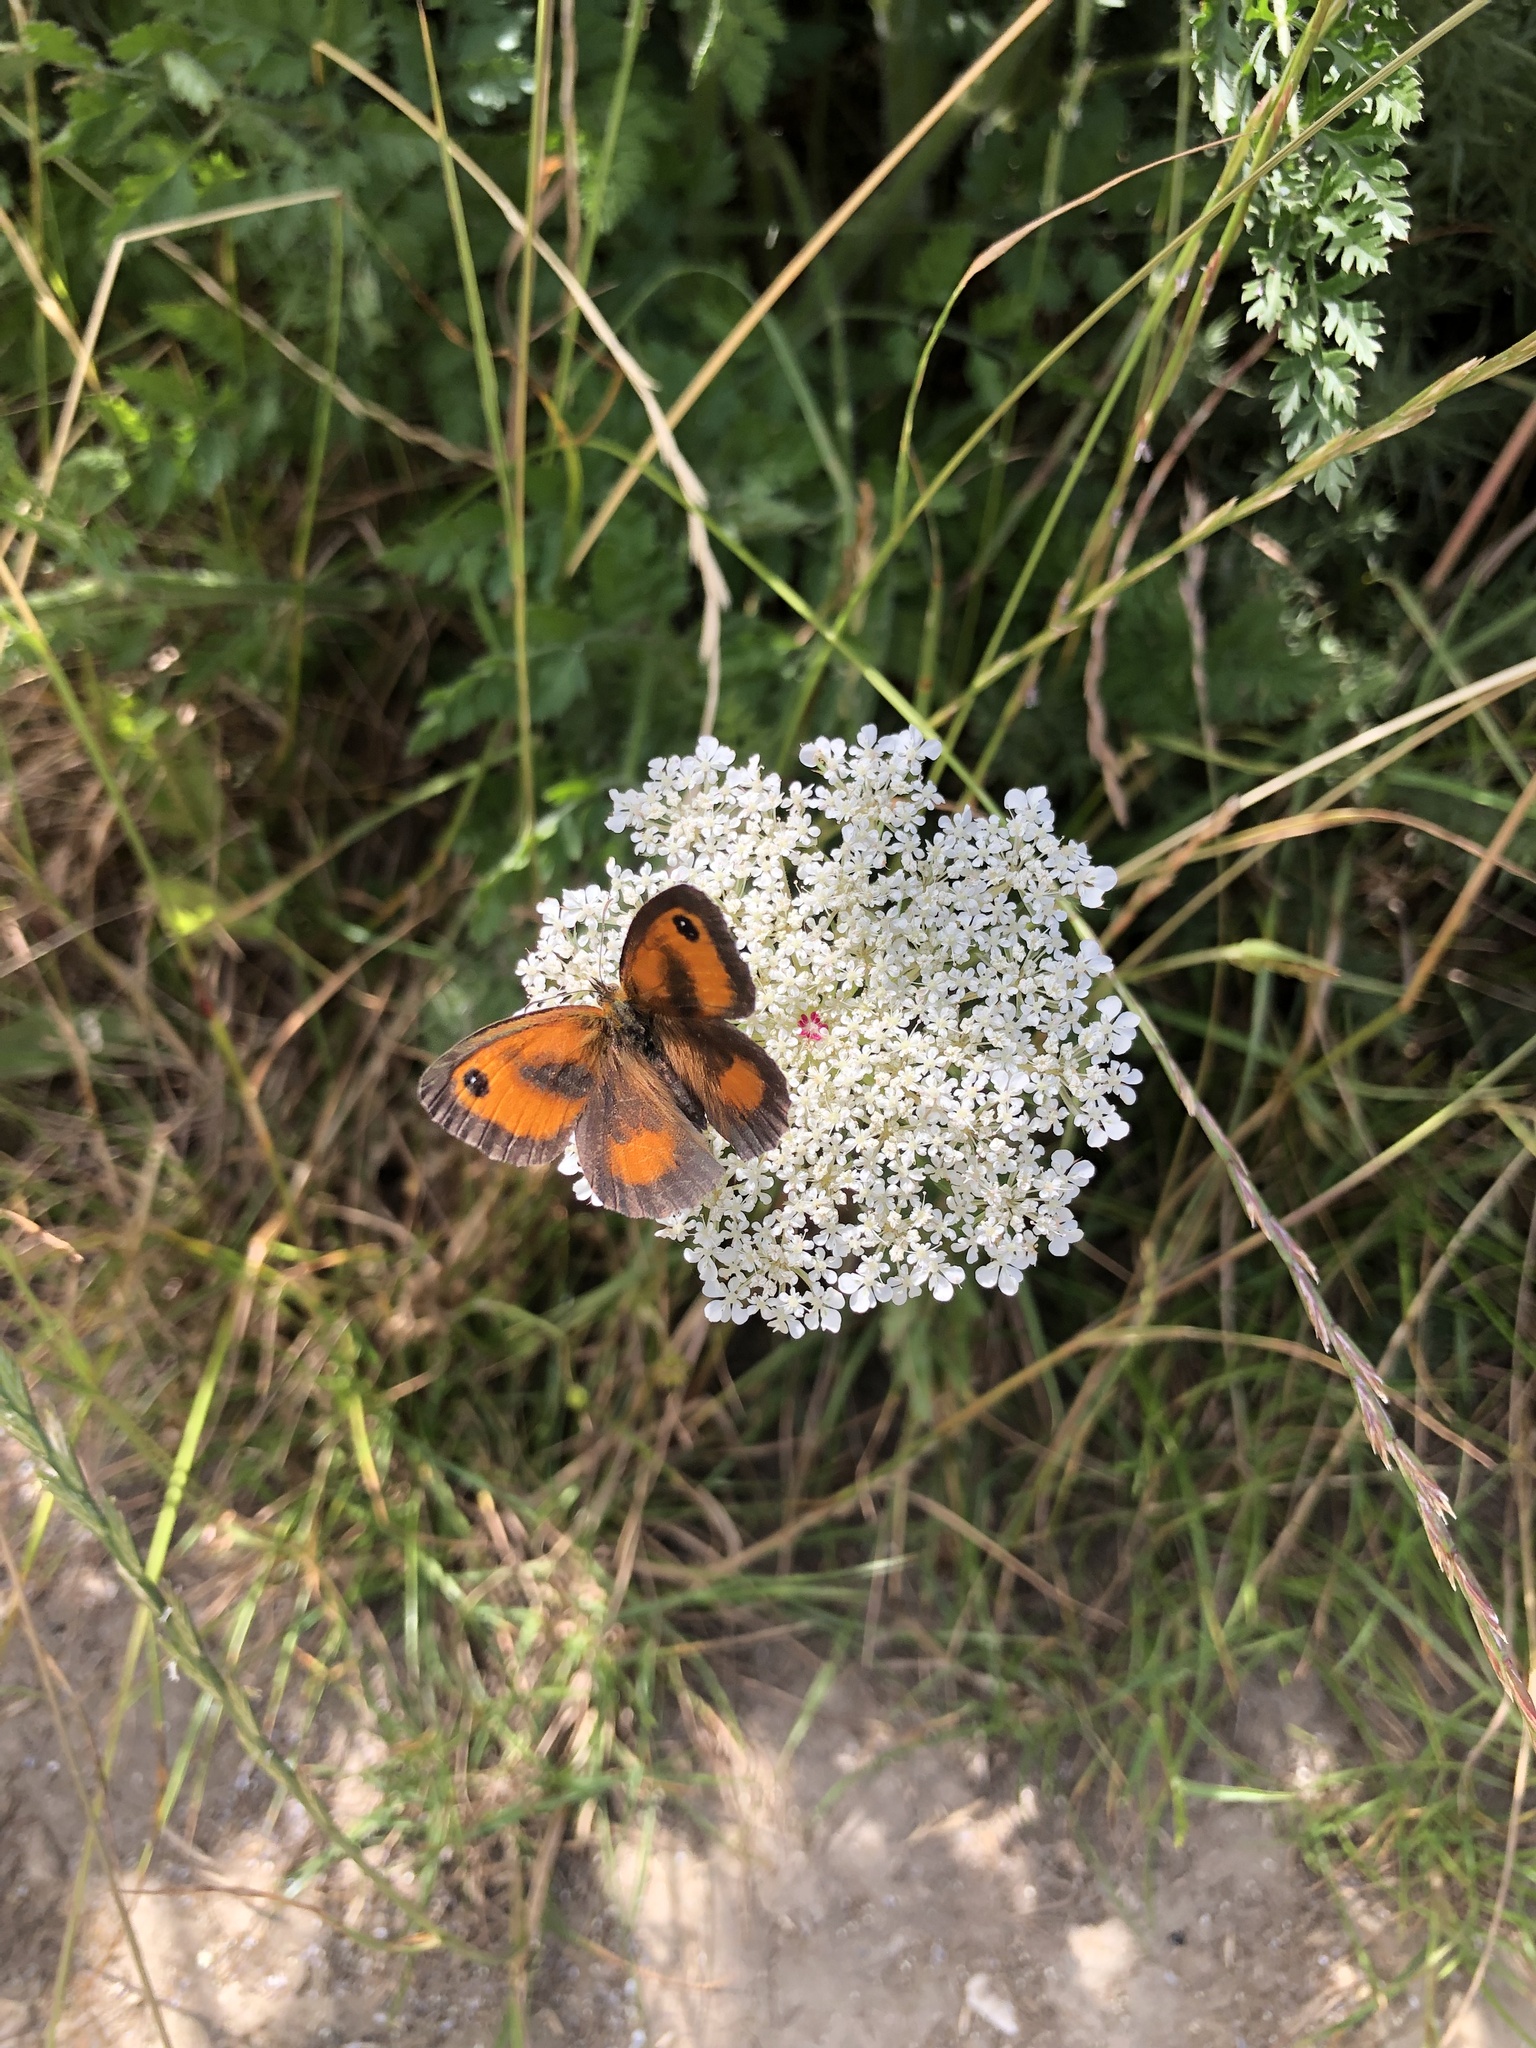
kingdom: Animalia
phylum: Arthropoda
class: Insecta
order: Lepidoptera
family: Nymphalidae
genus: Pyronia
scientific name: Pyronia tithonus
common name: Gatekeeper
